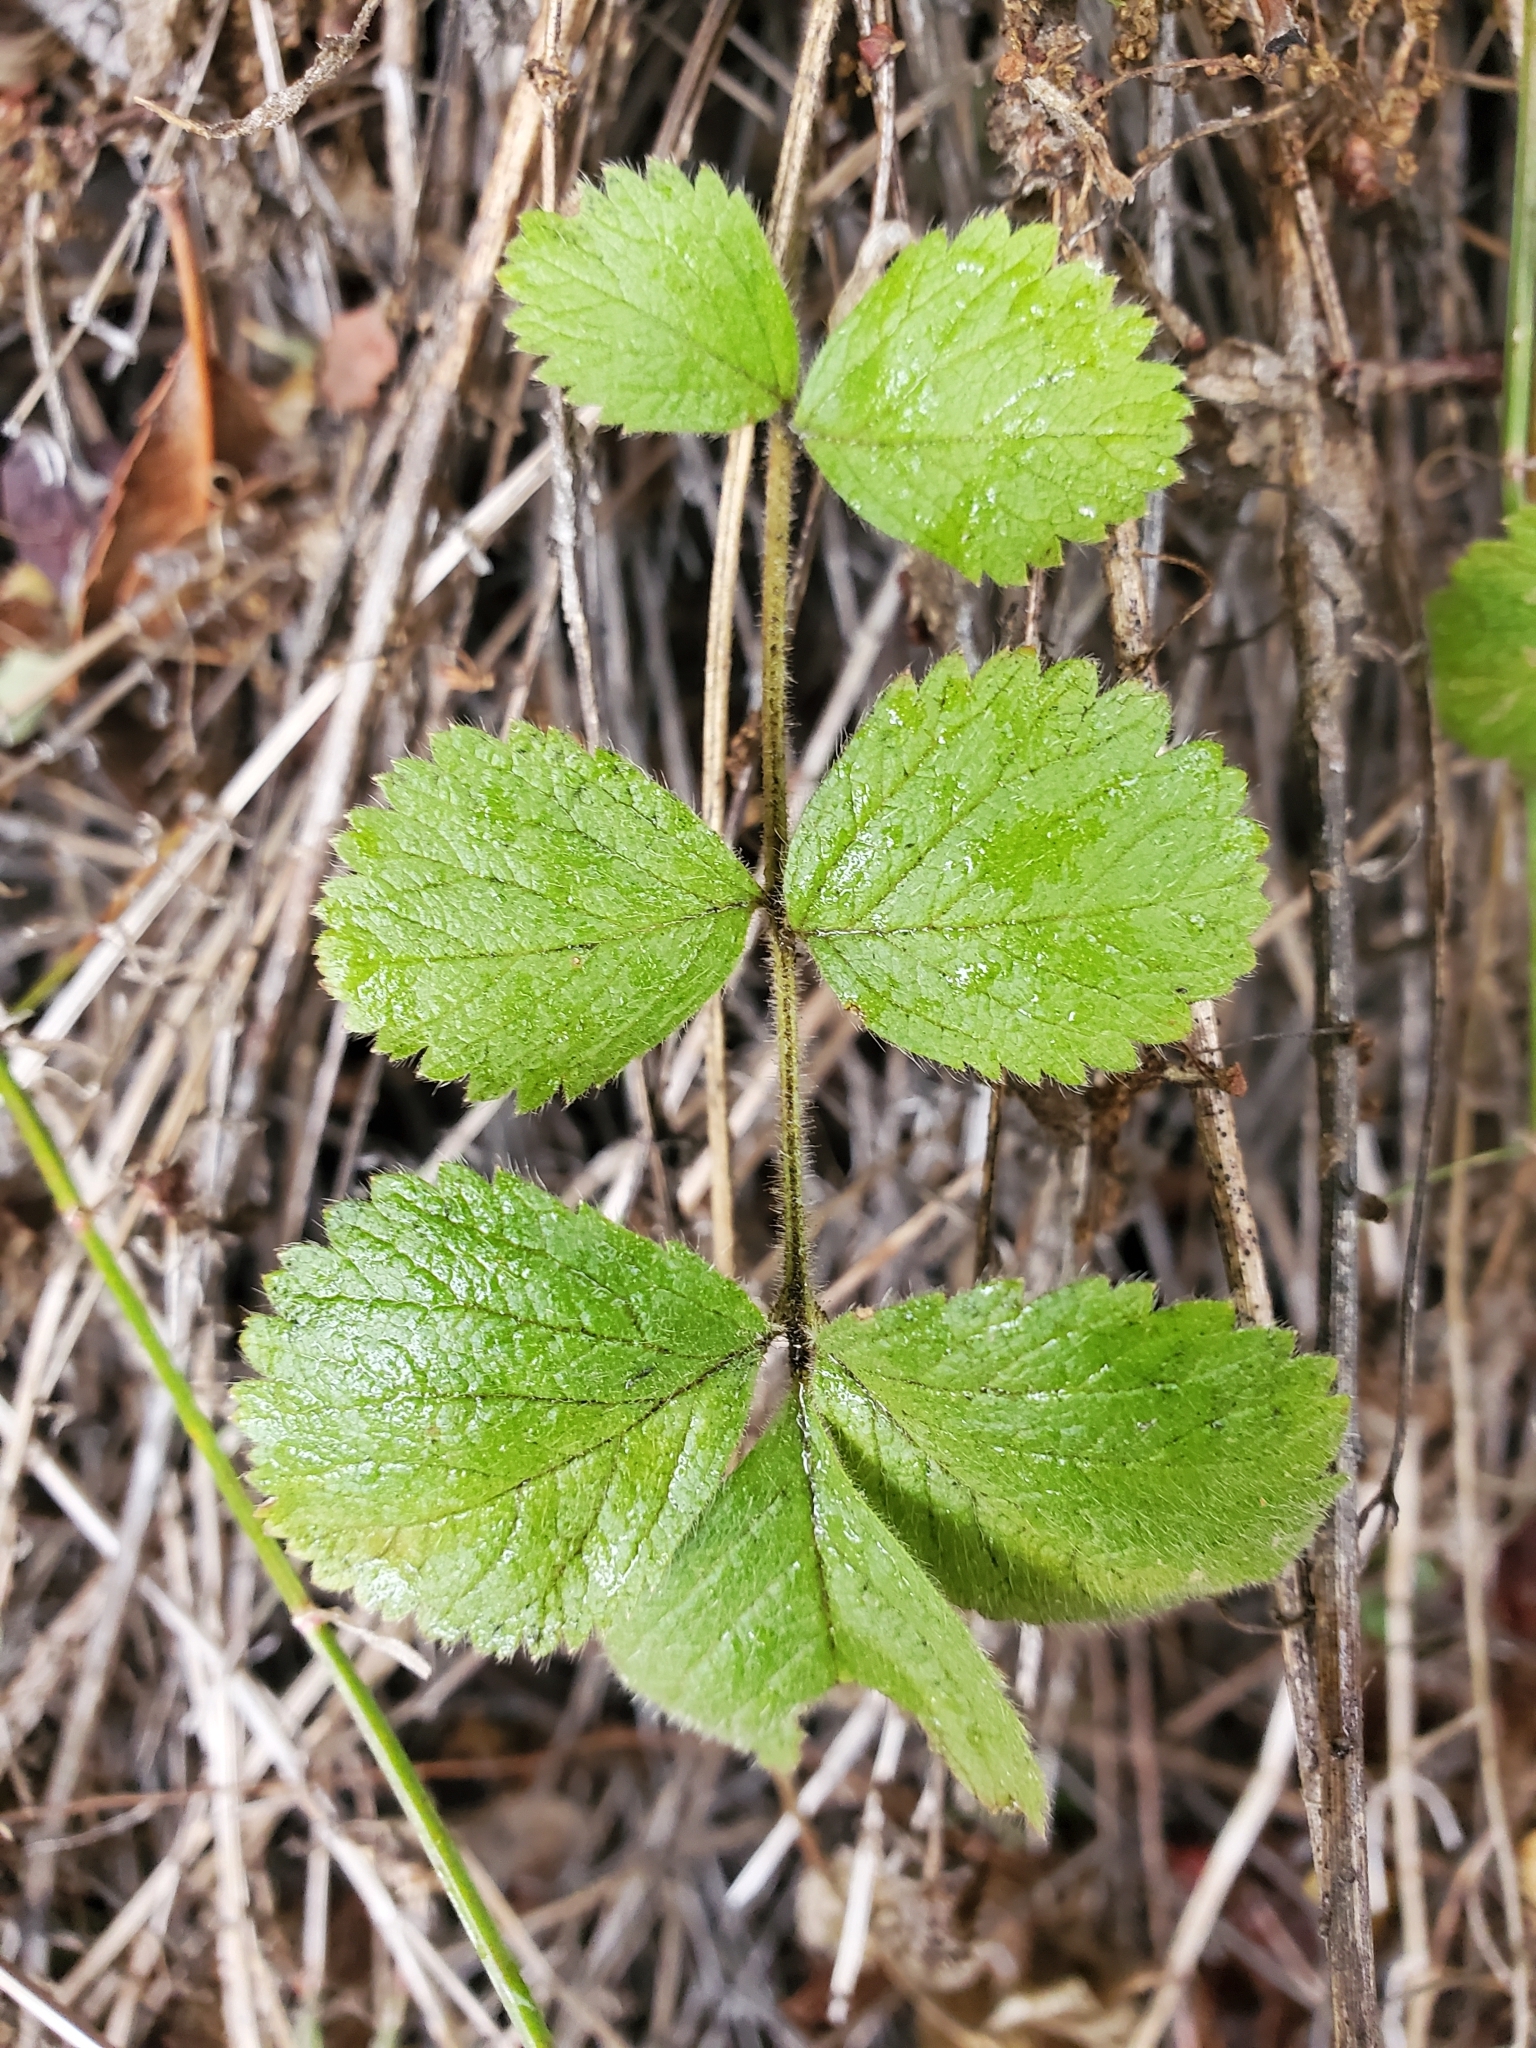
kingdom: Plantae
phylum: Tracheophyta
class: Magnoliopsida
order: Rosales
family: Rosaceae
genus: Drymocallis
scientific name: Drymocallis glandulosa
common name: Sticky cinquefoil
